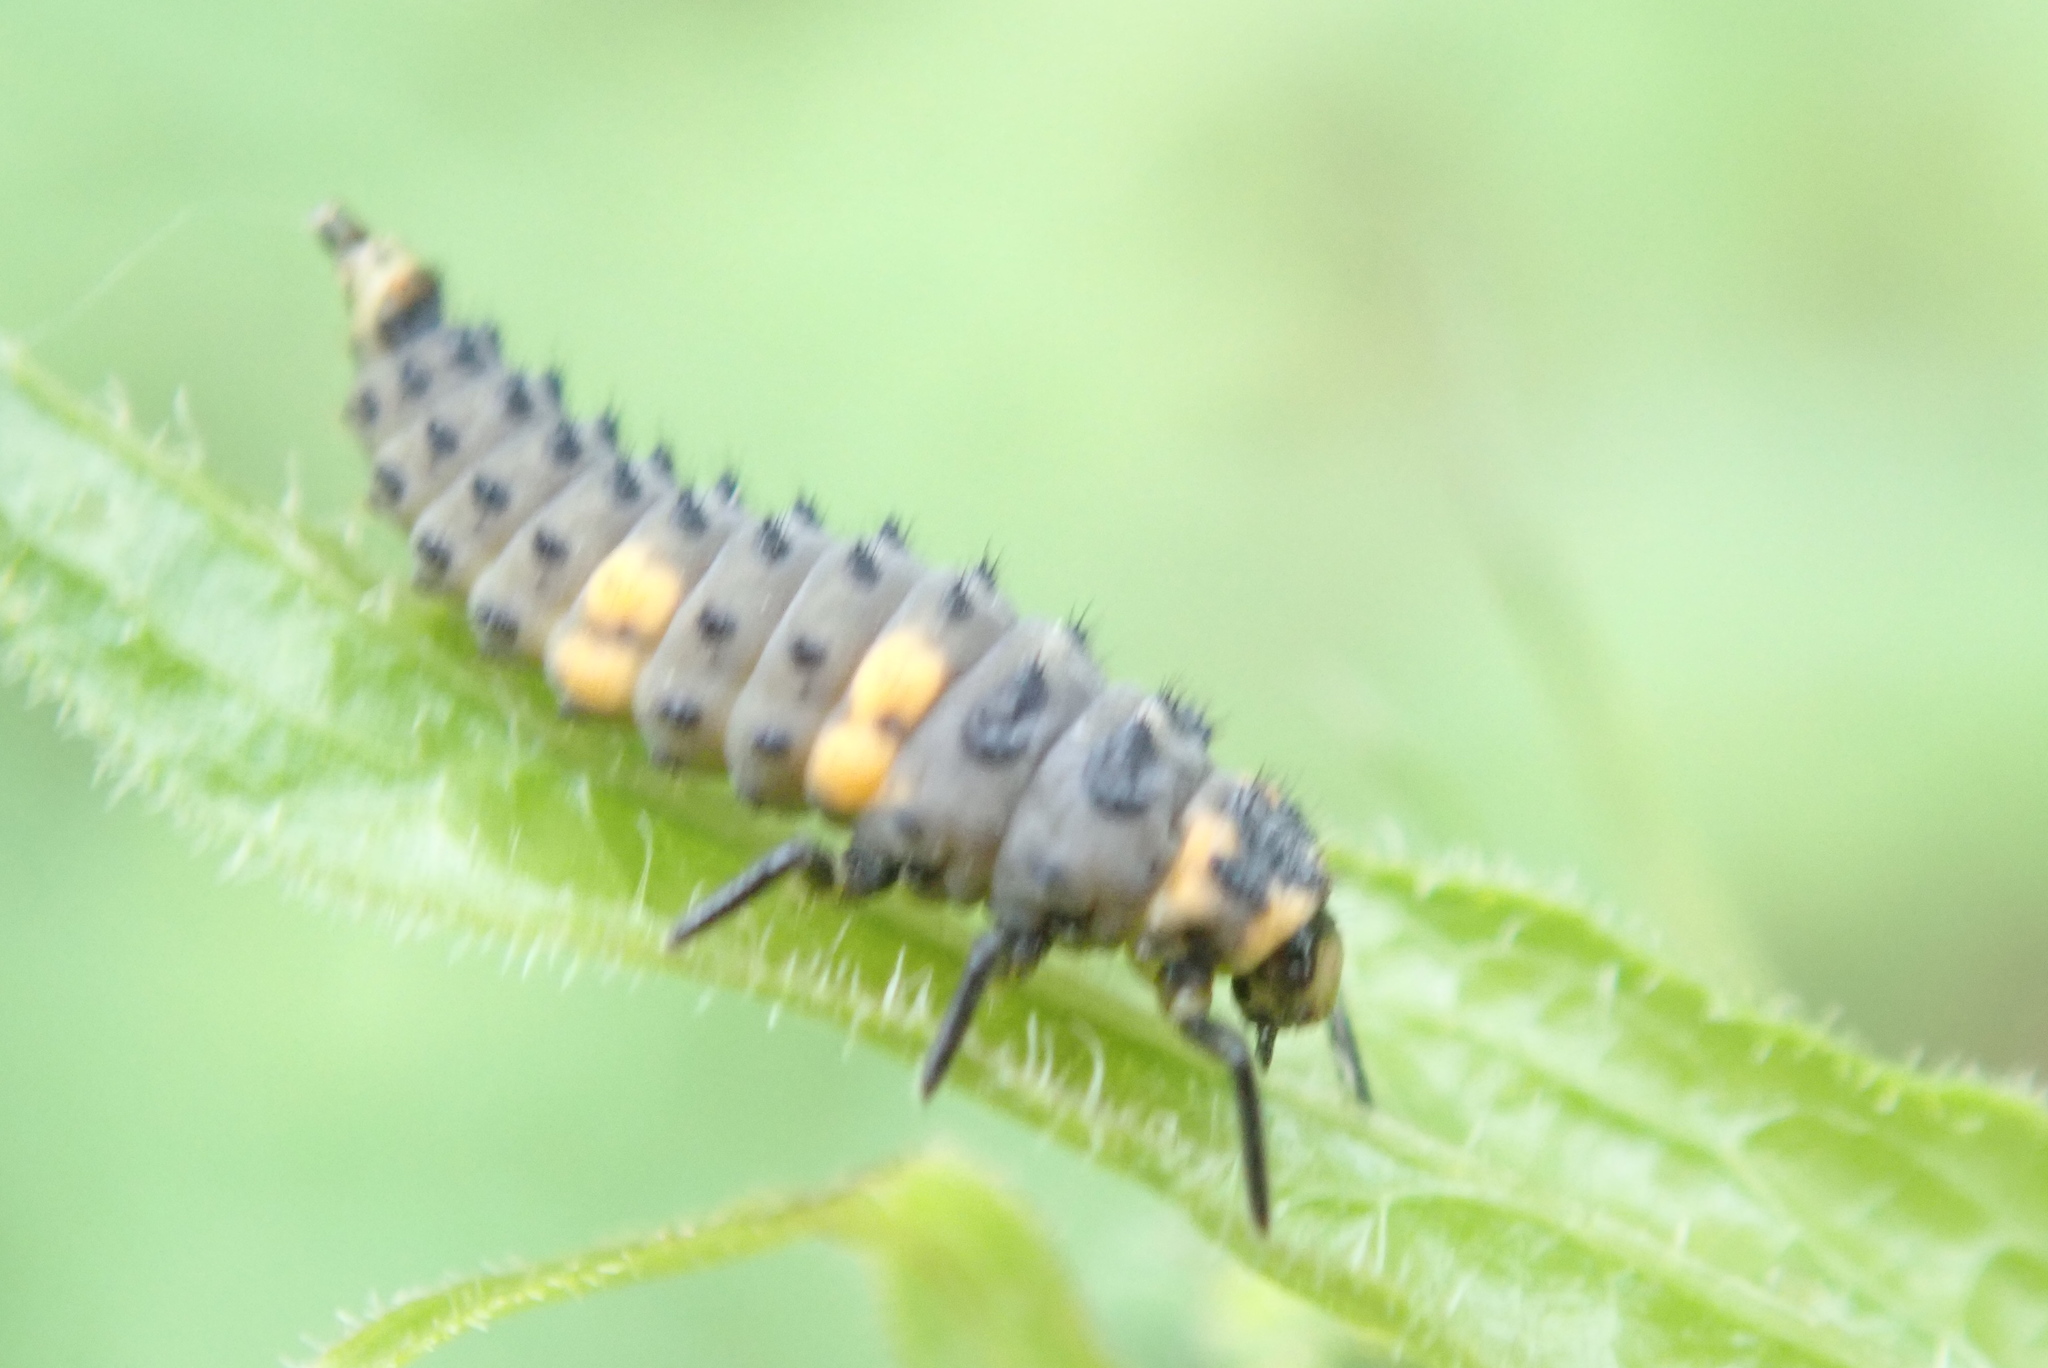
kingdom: Animalia
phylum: Arthropoda
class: Insecta
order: Coleoptera
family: Coccinellidae
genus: Coccinella
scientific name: Coccinella septempunctata
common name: Sevenspotted lady beetle
